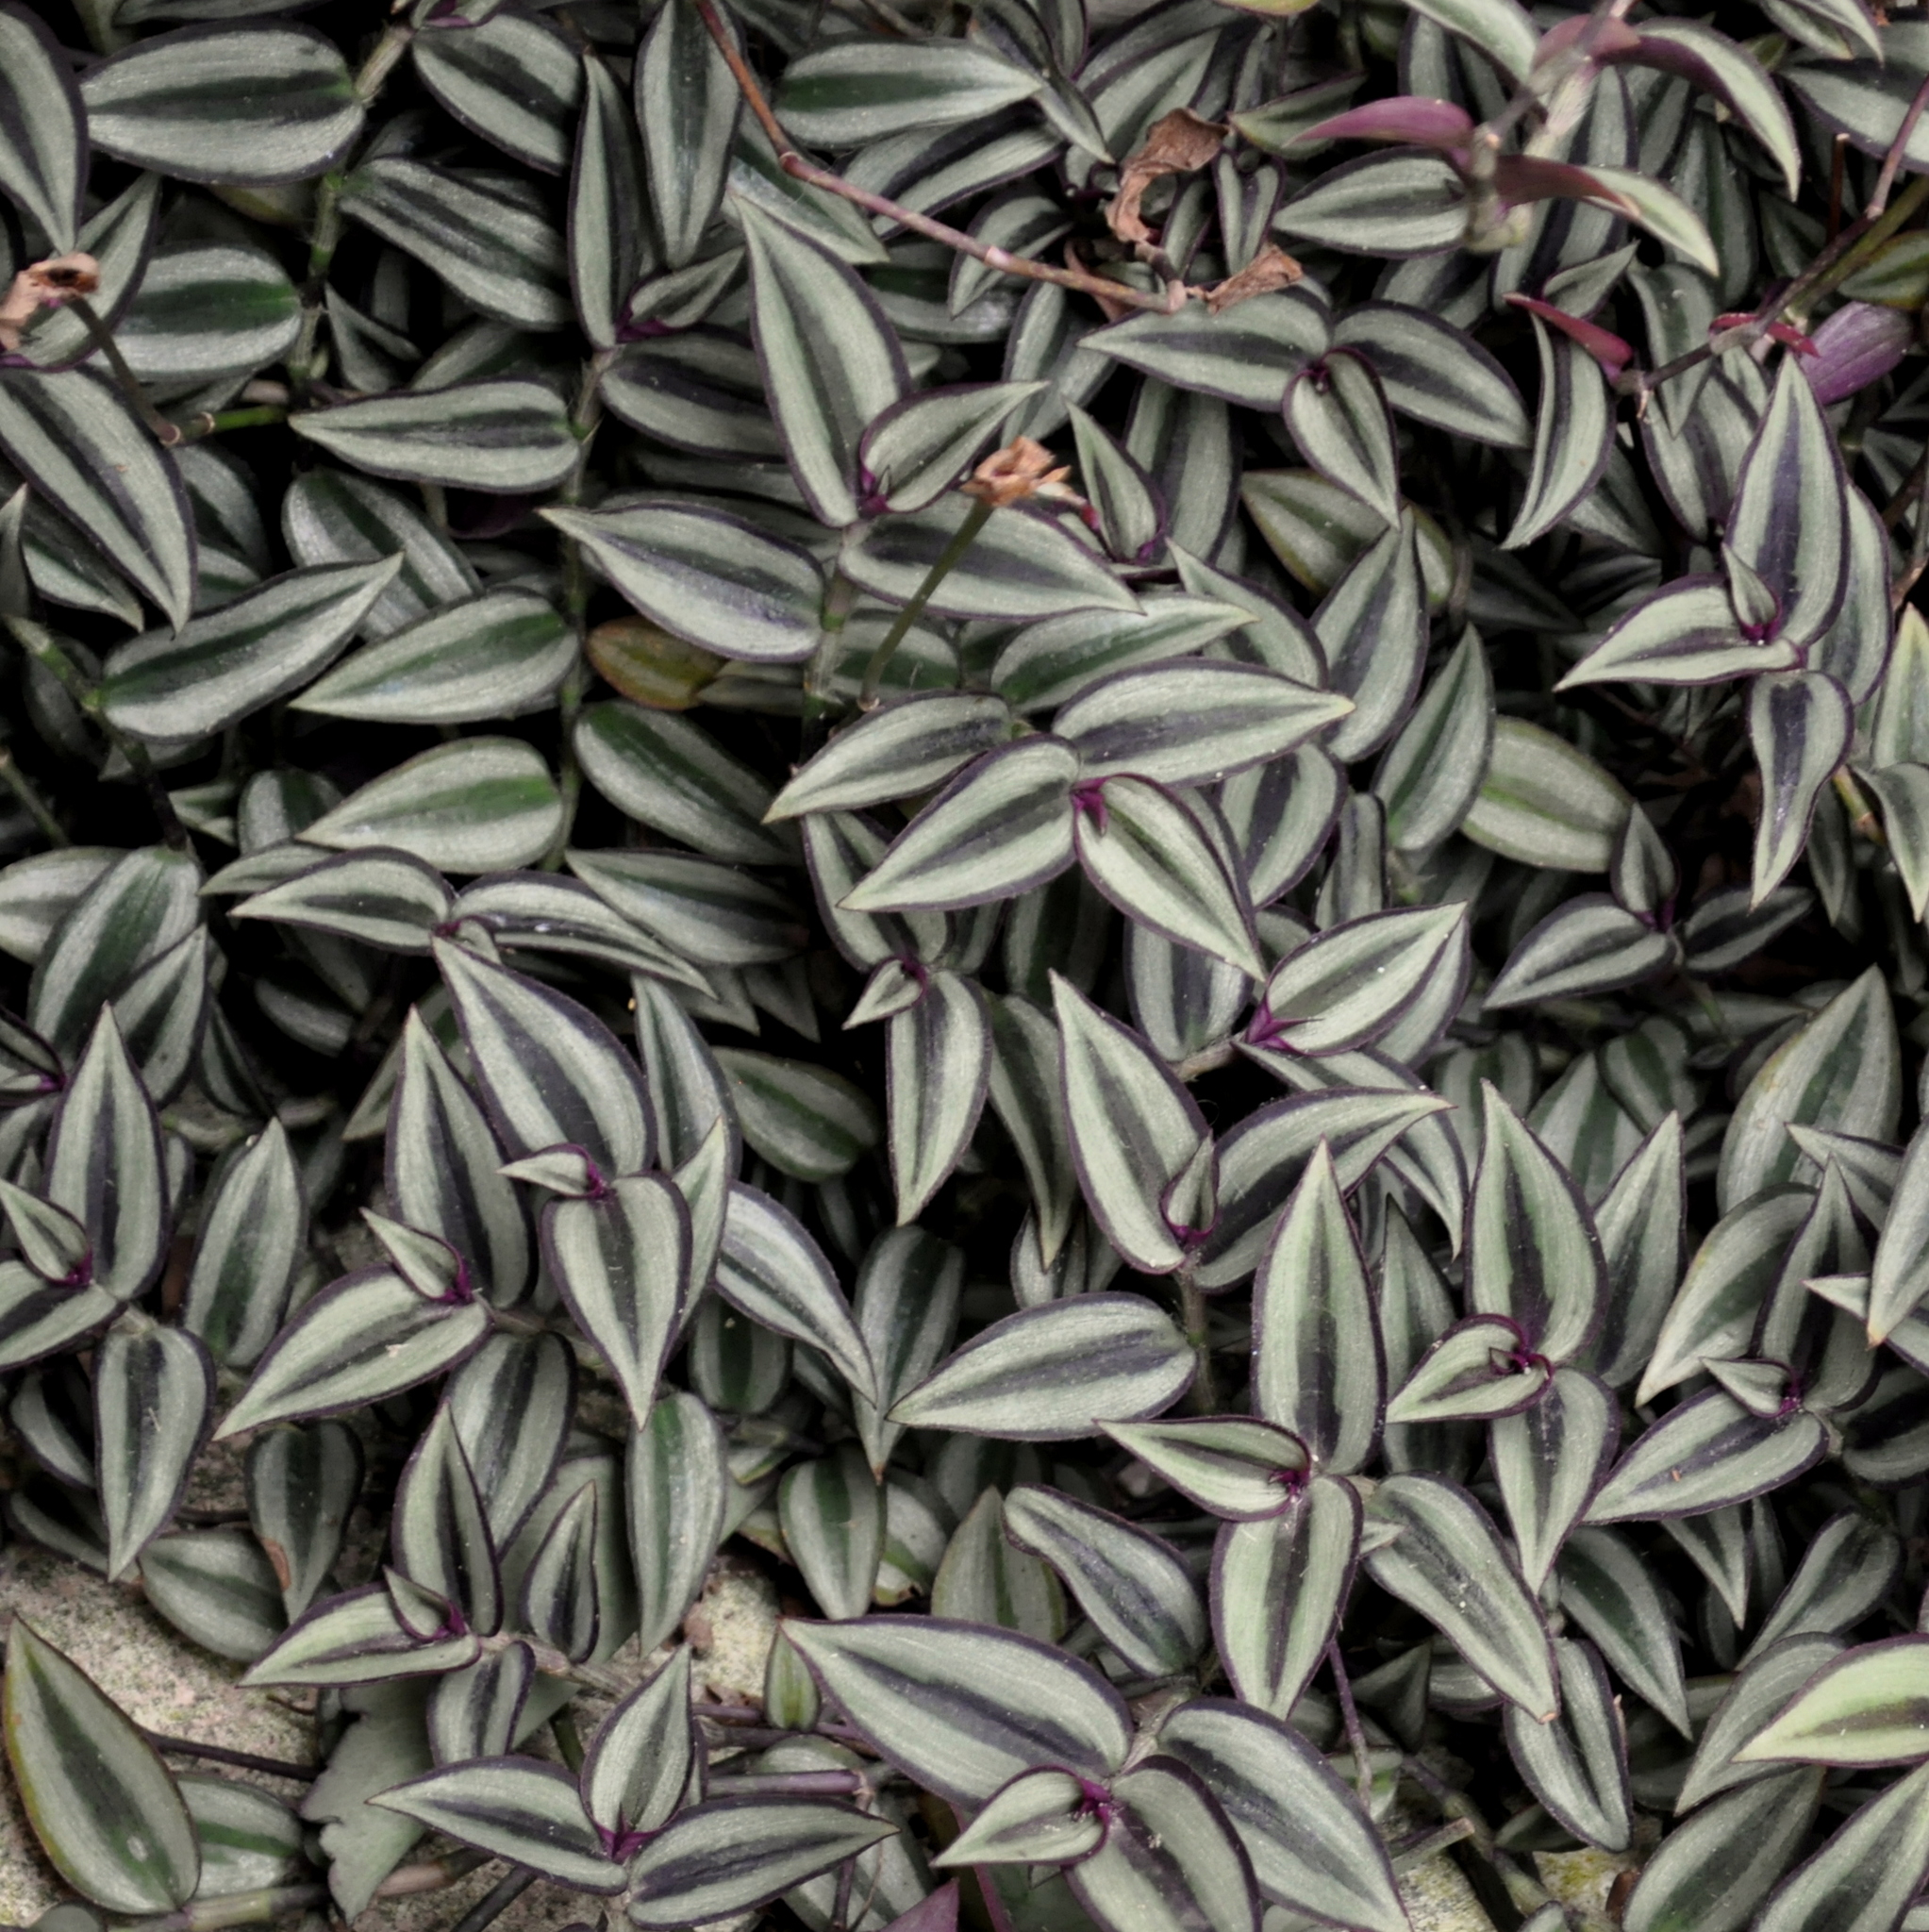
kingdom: Plantae
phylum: Tracheophyta
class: Liliopsida
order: Commelinales
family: Commelinaceae
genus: Tradescantia
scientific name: Tradescantia zebrina
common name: Inchplant
